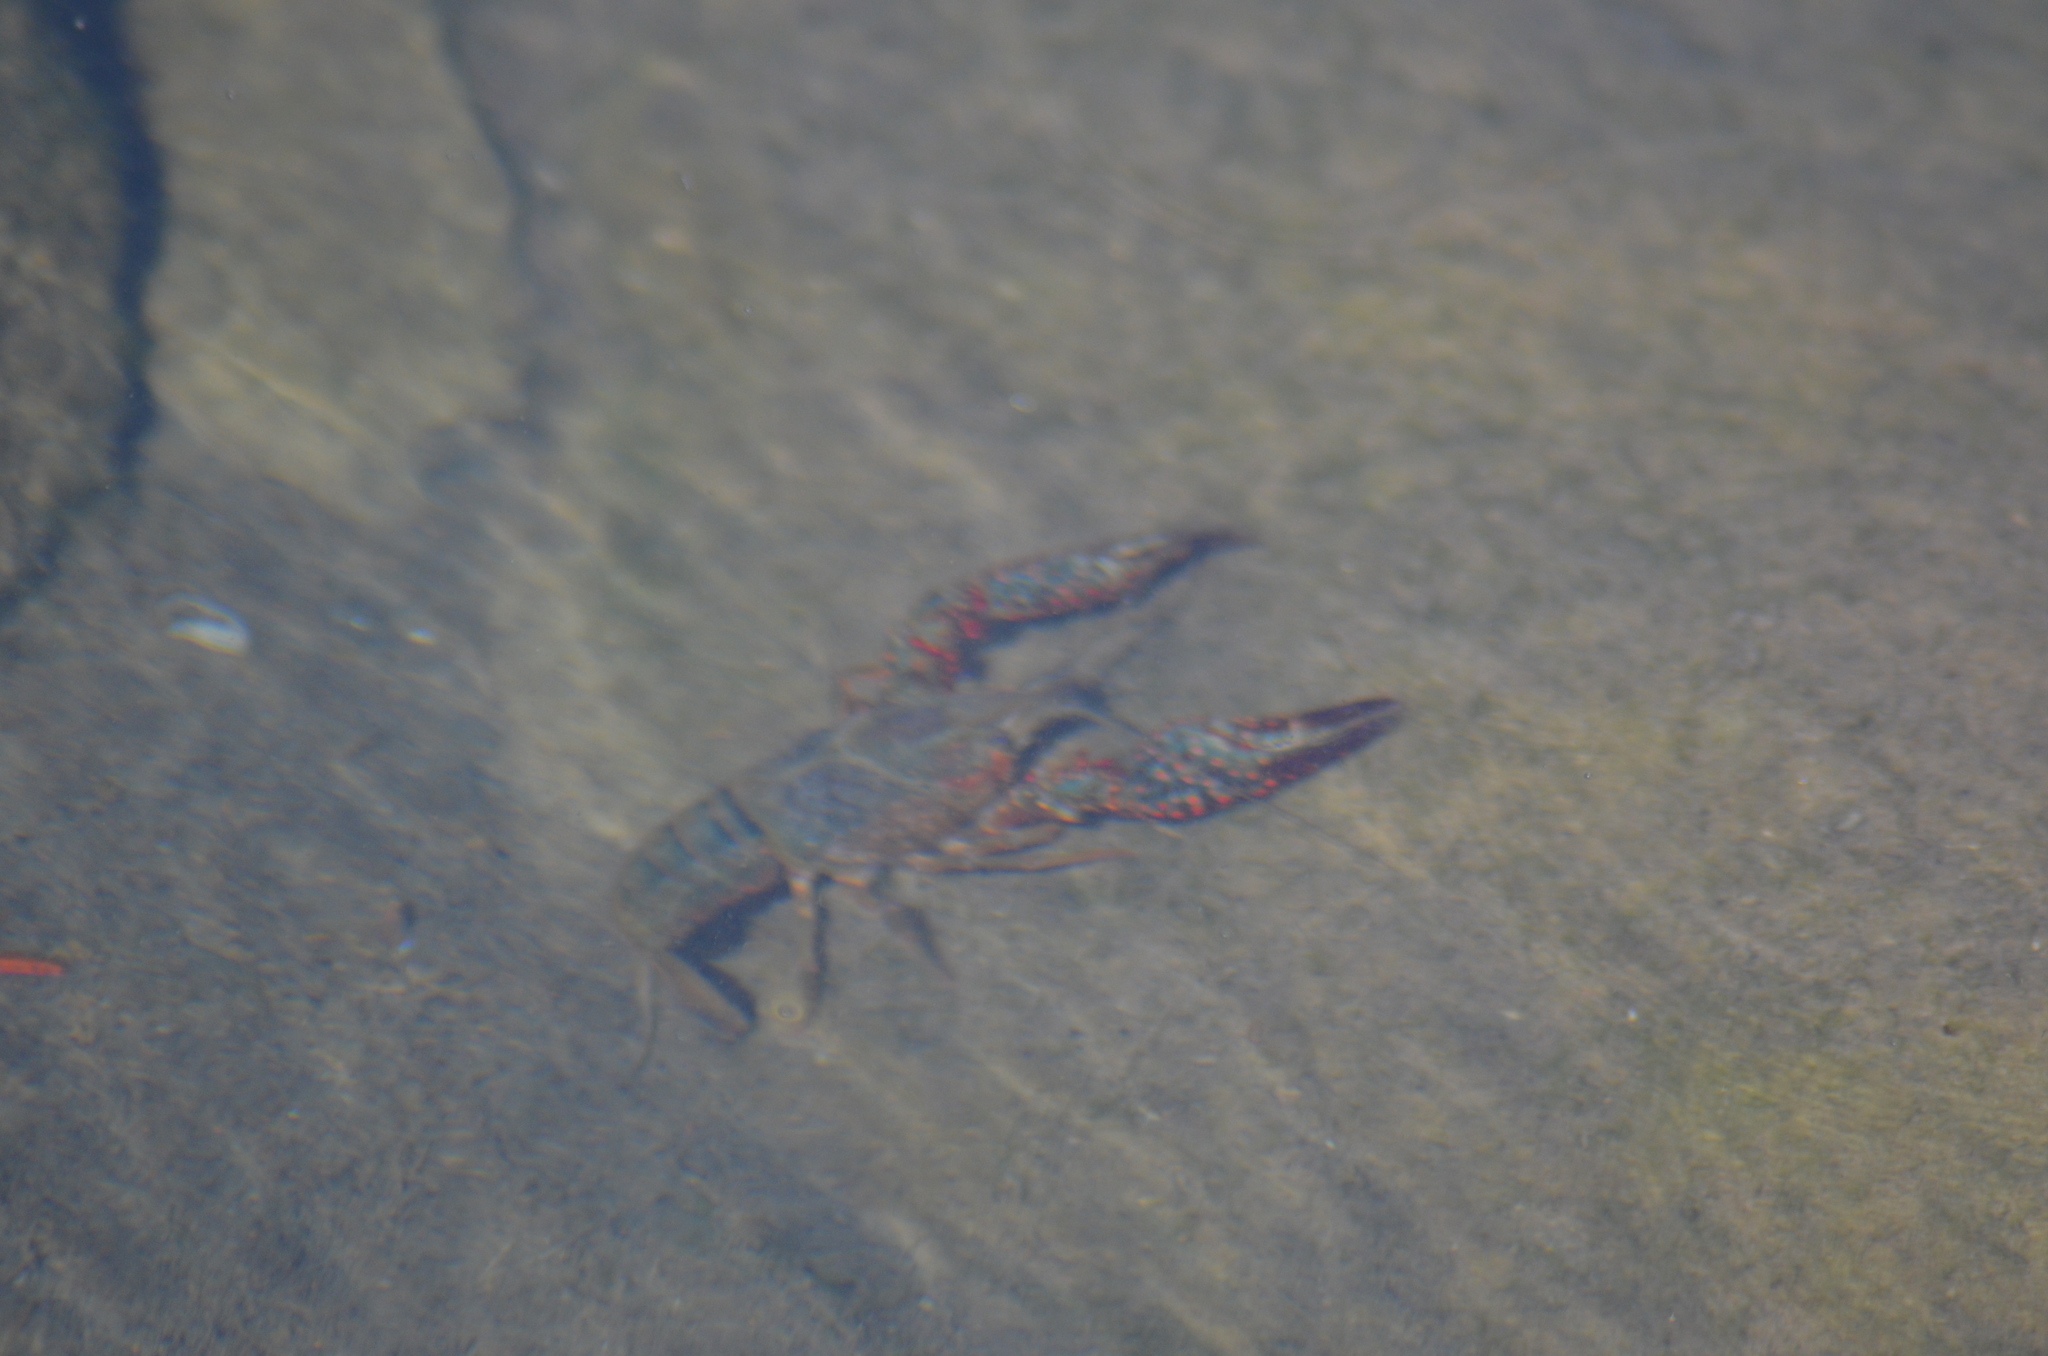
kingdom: Animalia
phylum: Arthropoda
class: Malacostraca
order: Decapoda
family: Cambaridae
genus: Procambarus
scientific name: Procambarus clarkii
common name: Red swamp crayfish
